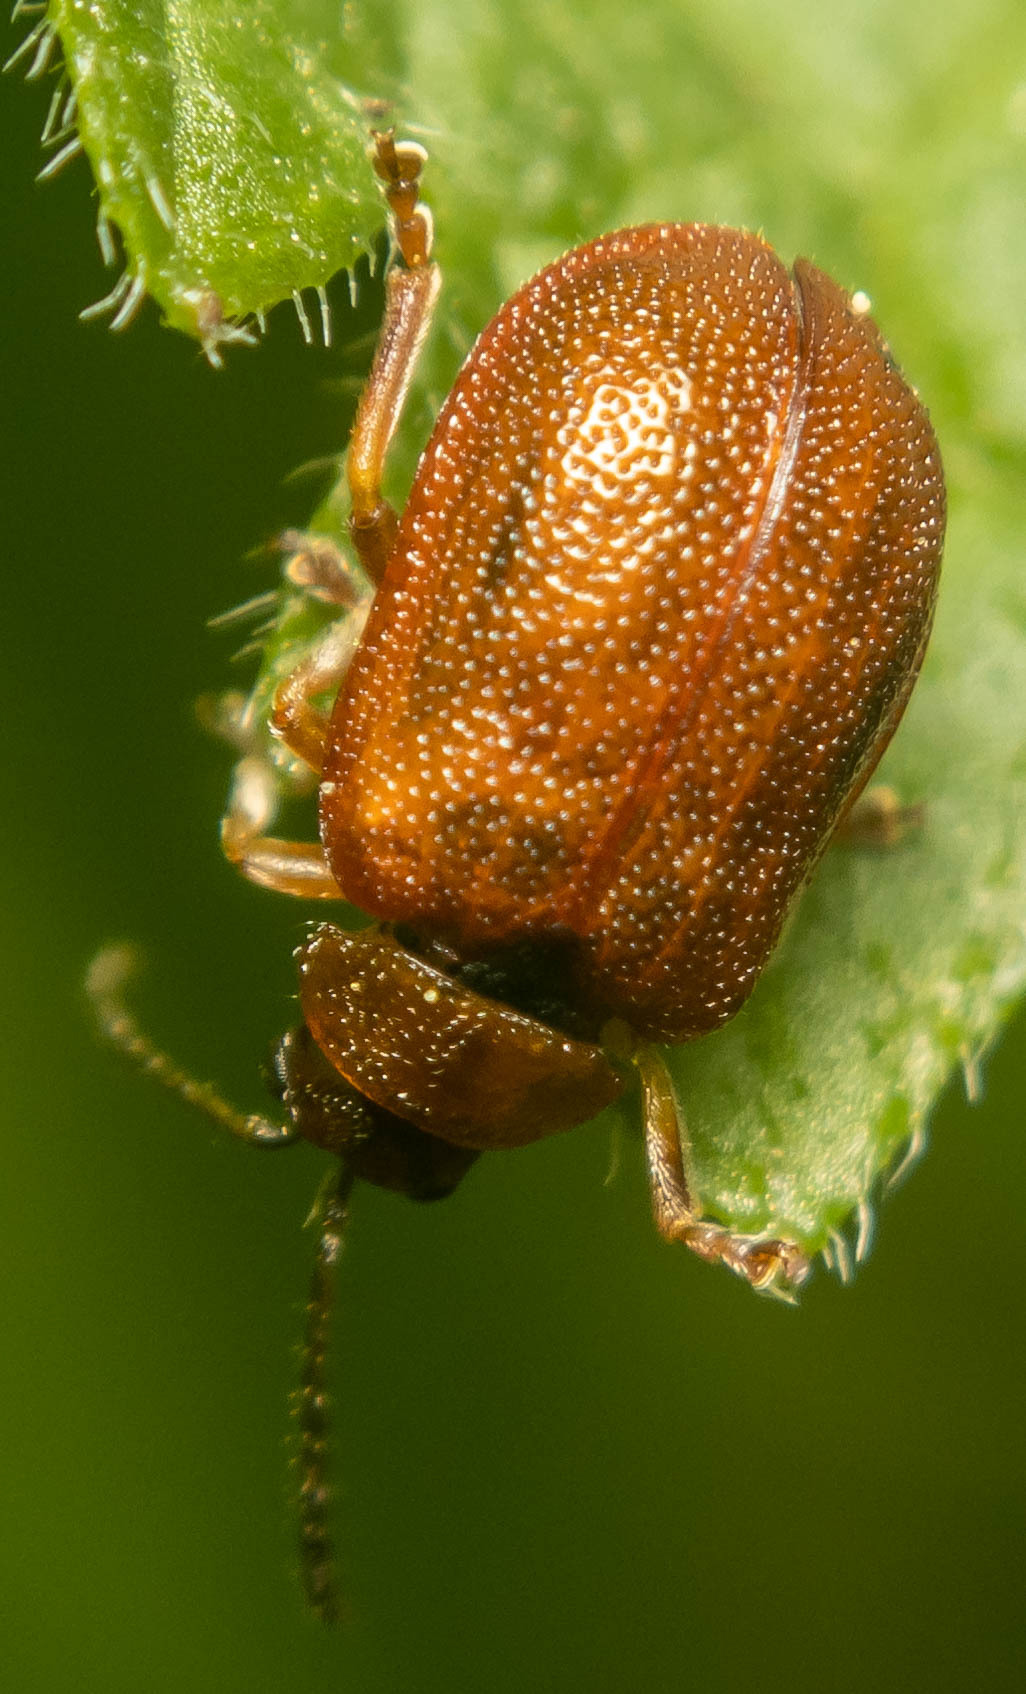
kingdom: Animalia
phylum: Arthropoda
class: Insecta
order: Coleoptera
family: Chrysomelidae
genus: Lochmaea
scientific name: Lochmaea crataegi
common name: Hawthorn leaf beetle
